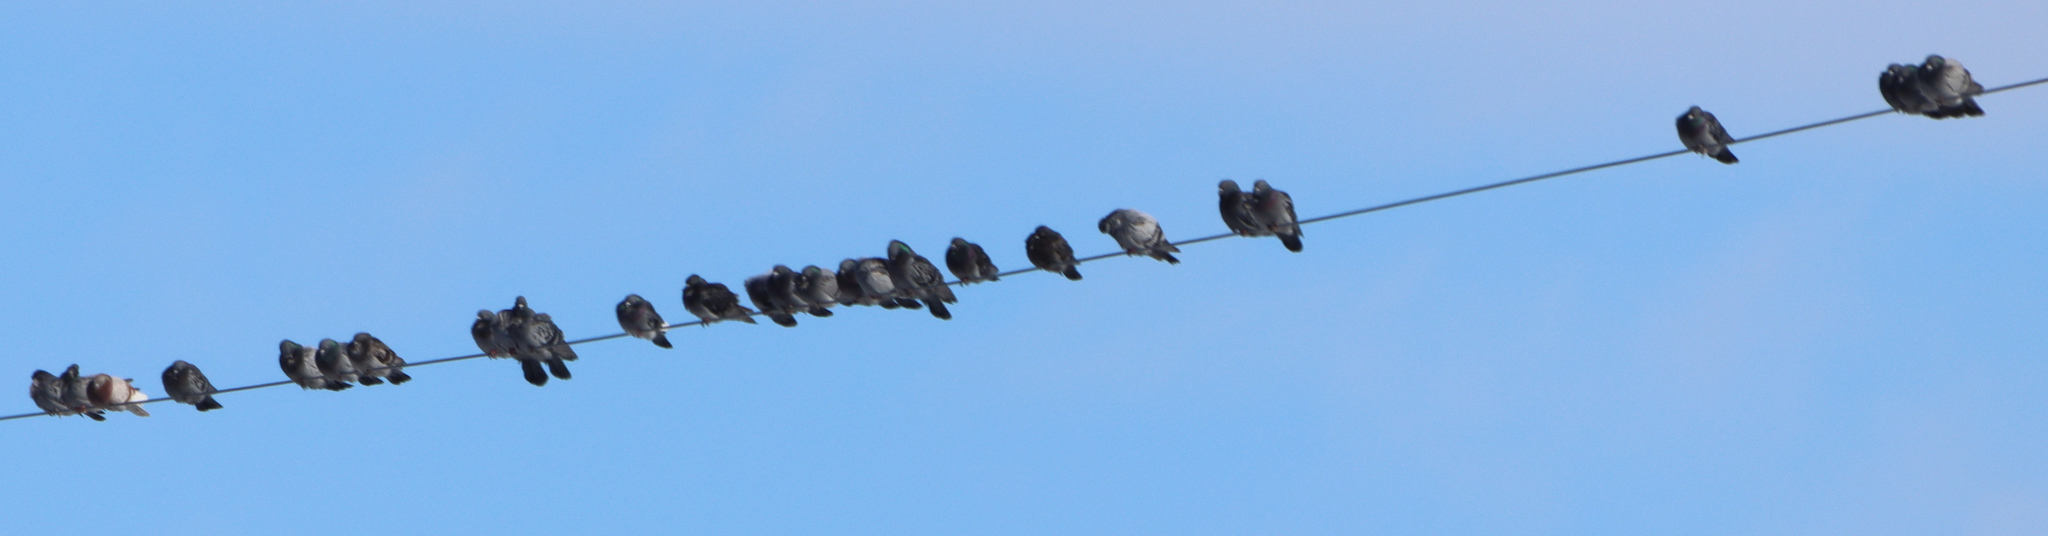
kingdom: Animalia
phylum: Chordata
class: Aves
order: Columbiformes
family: Columbidae
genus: Columba
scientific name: Columba livia
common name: Rock pigeon
